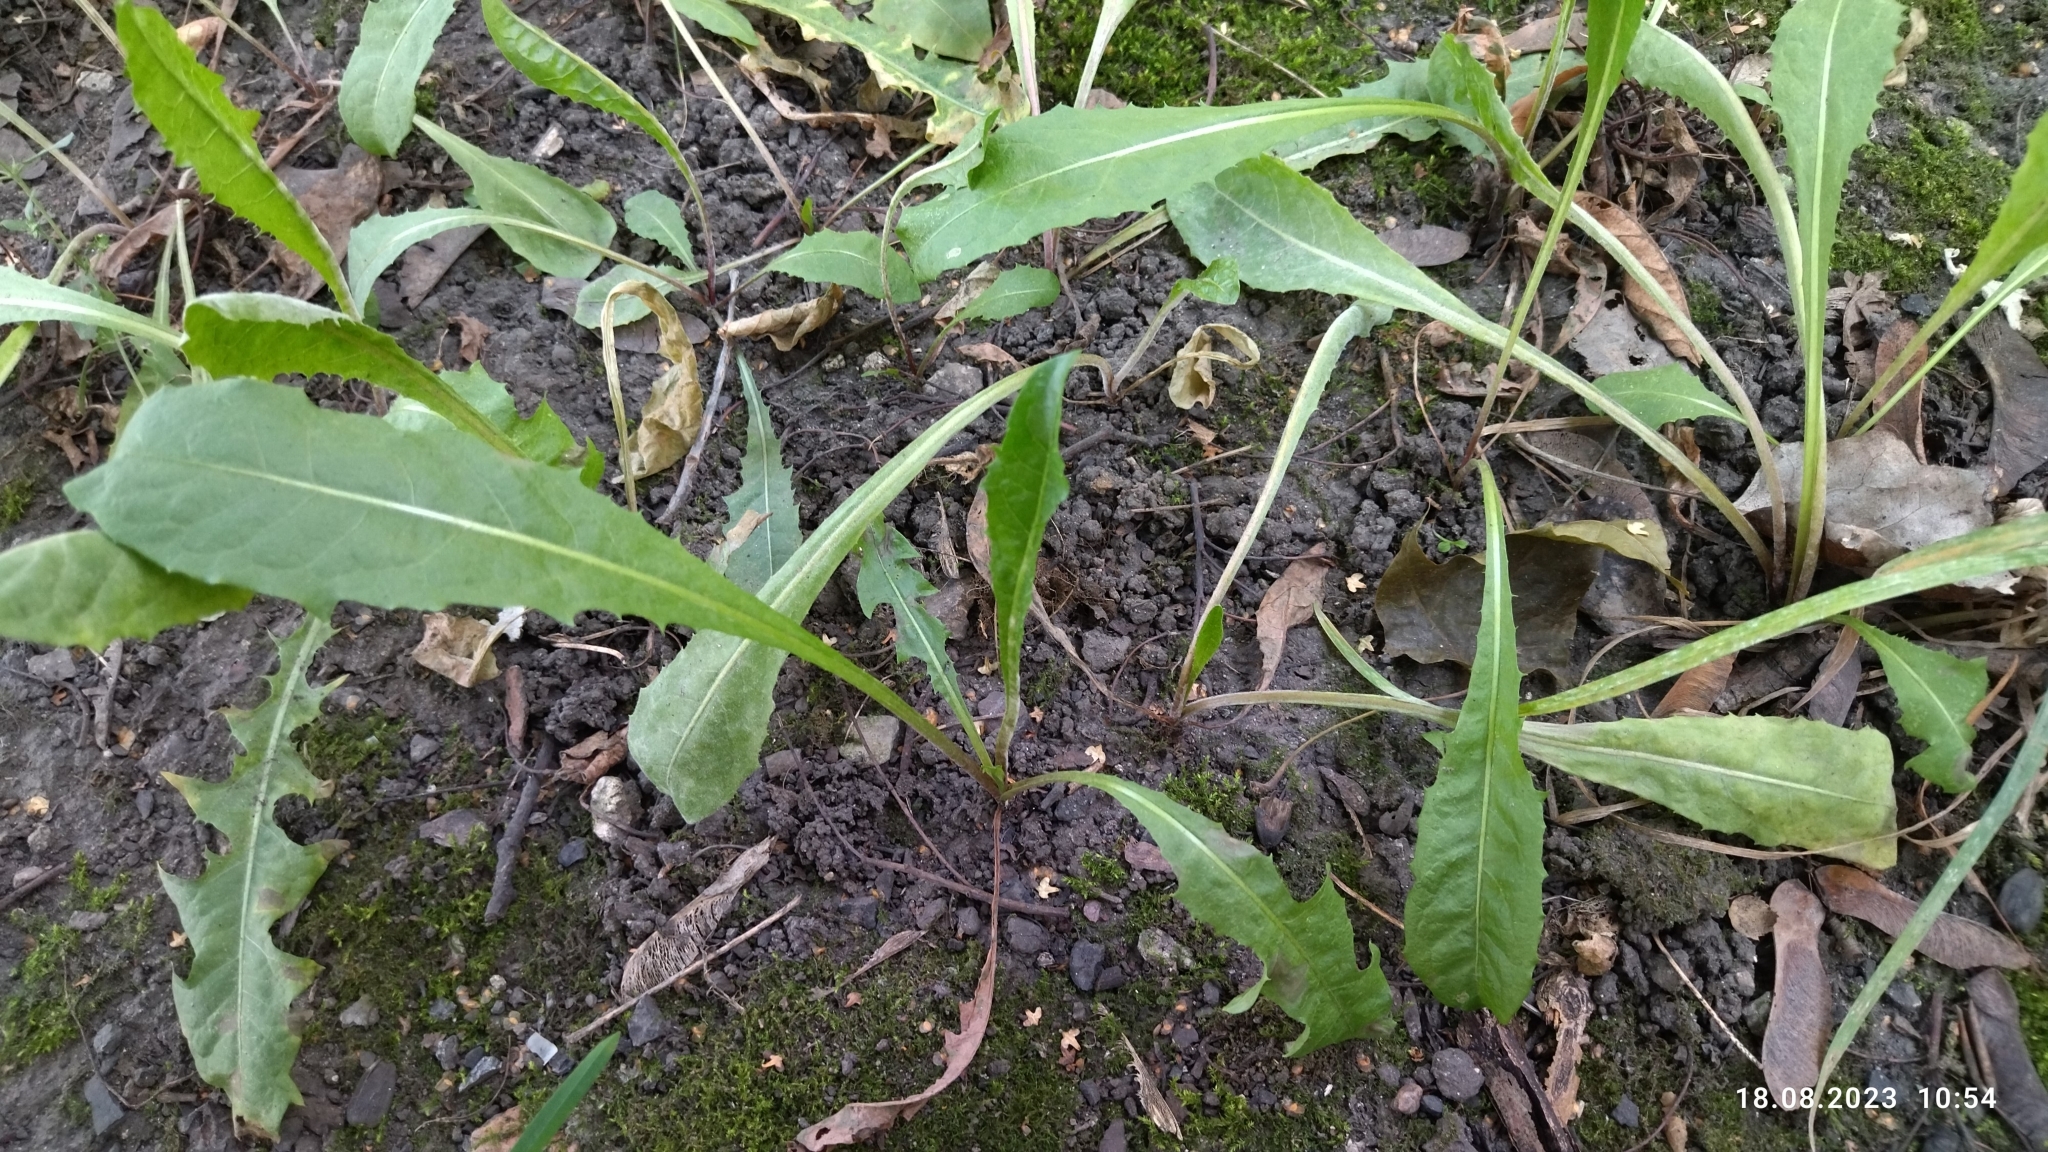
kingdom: Plantae
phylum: Tracheophyta
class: Magnoliopsida
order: Asterales
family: Asteraceae
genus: Taraxacum
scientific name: Taraxacum officinale
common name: Common dandelion
